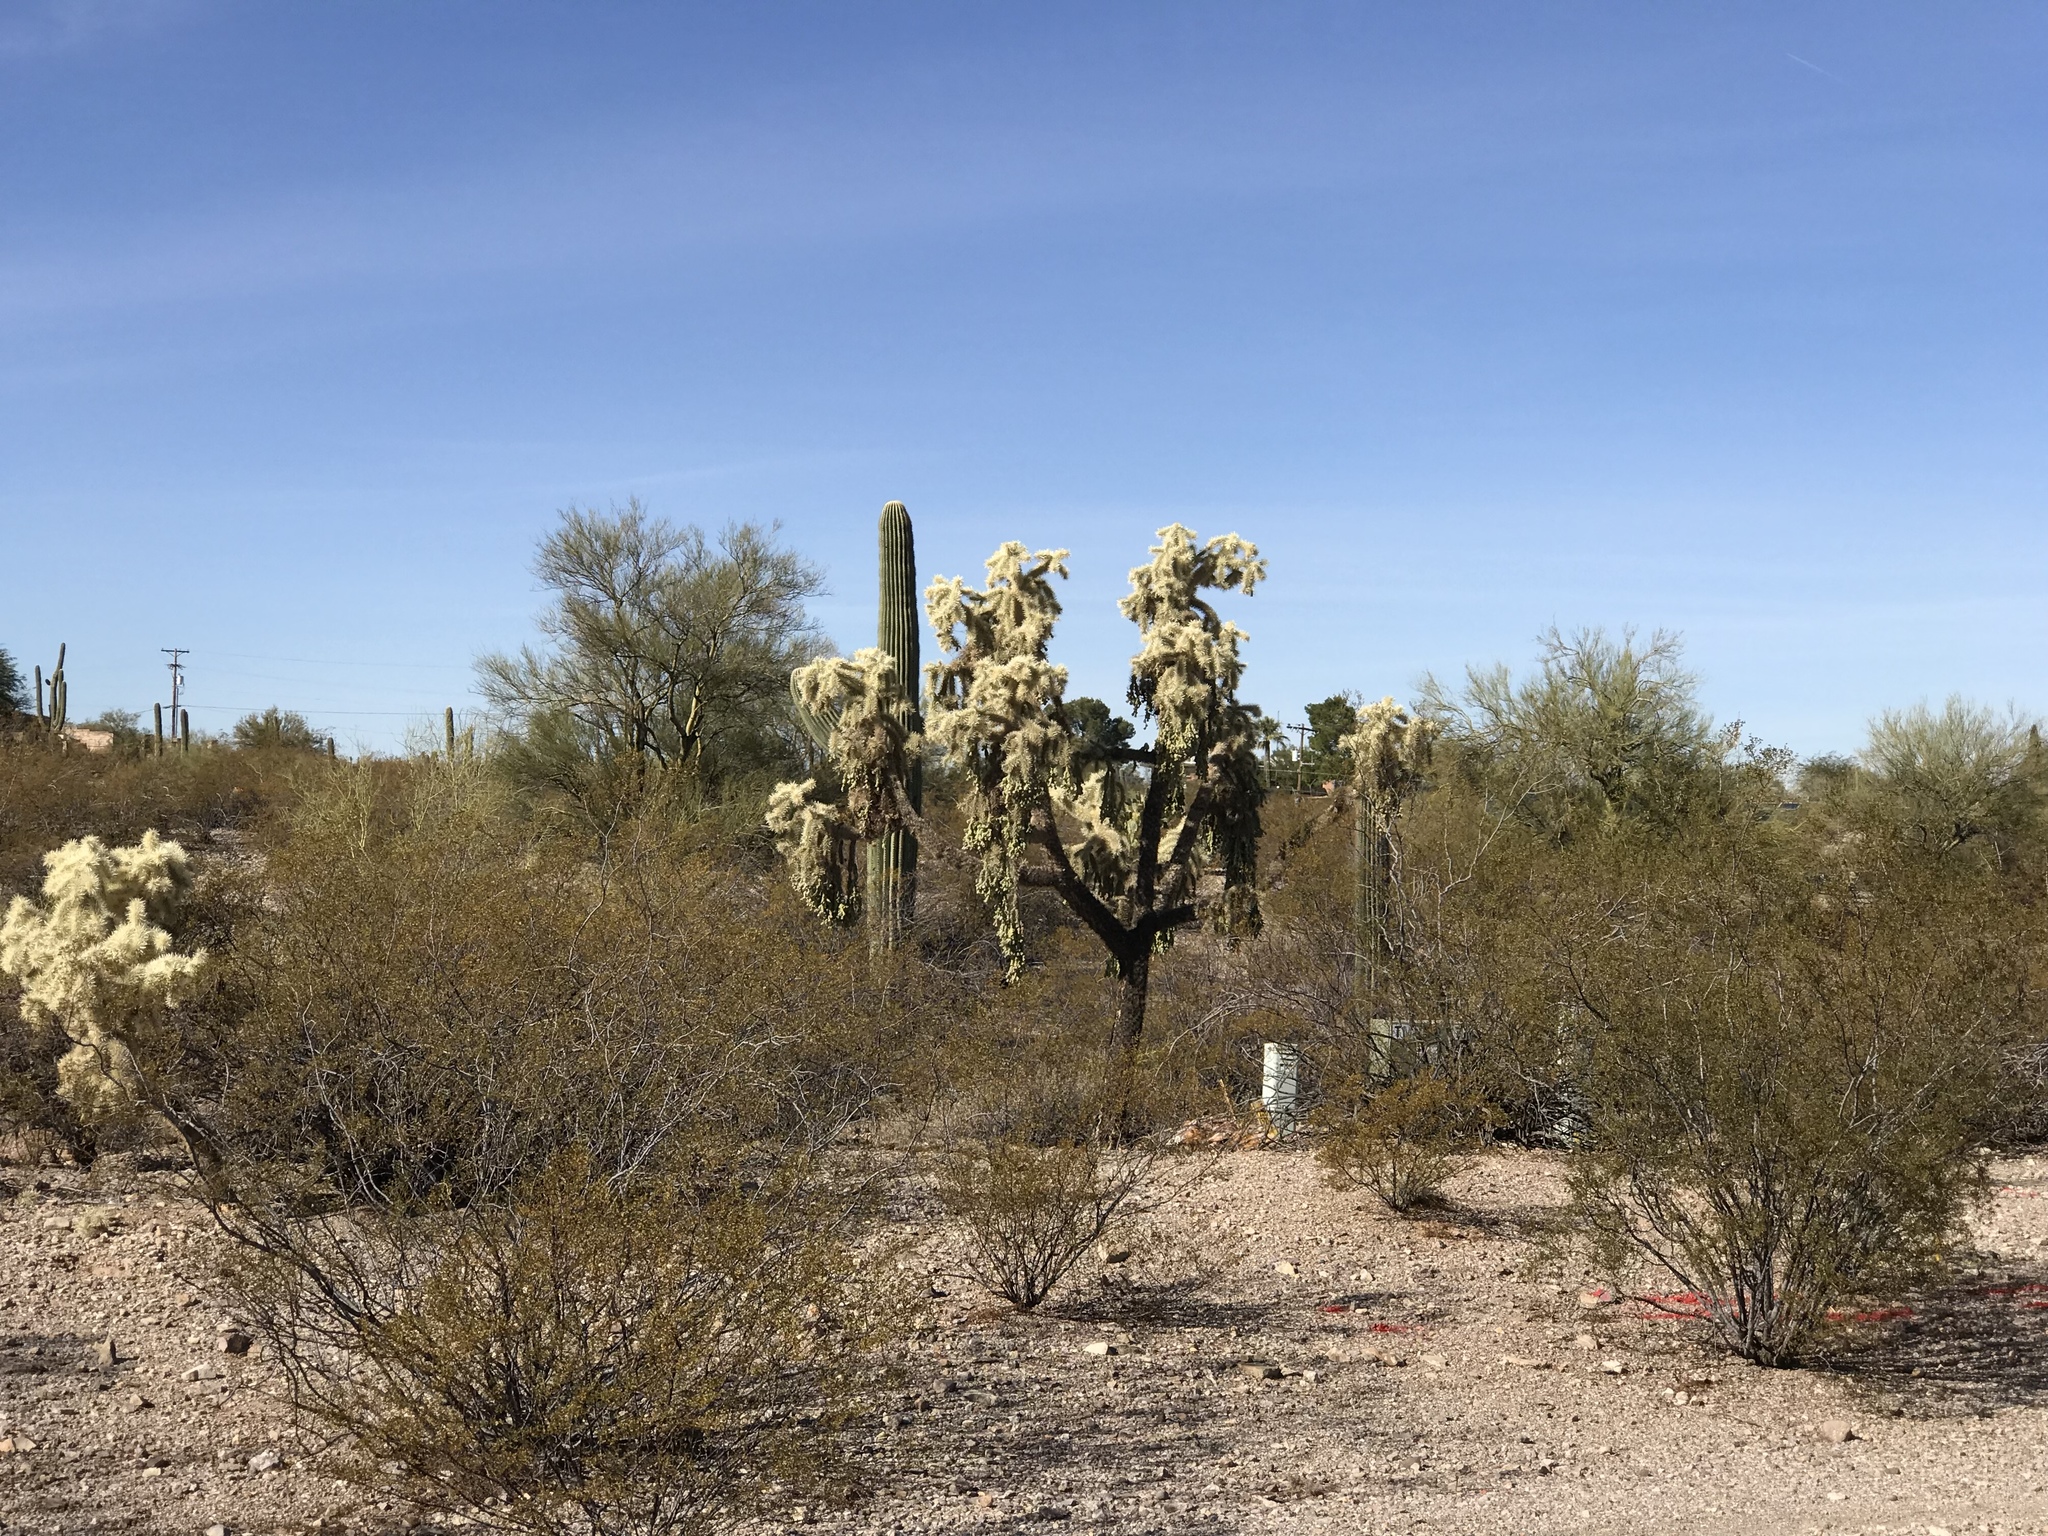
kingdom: Plantae
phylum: Tracheophyta
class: Magnoliopsida
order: Caryophyllales
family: Cactaceae
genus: Cylindropuntia
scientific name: Cylindropuntia fulgida
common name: Jumping cholla
